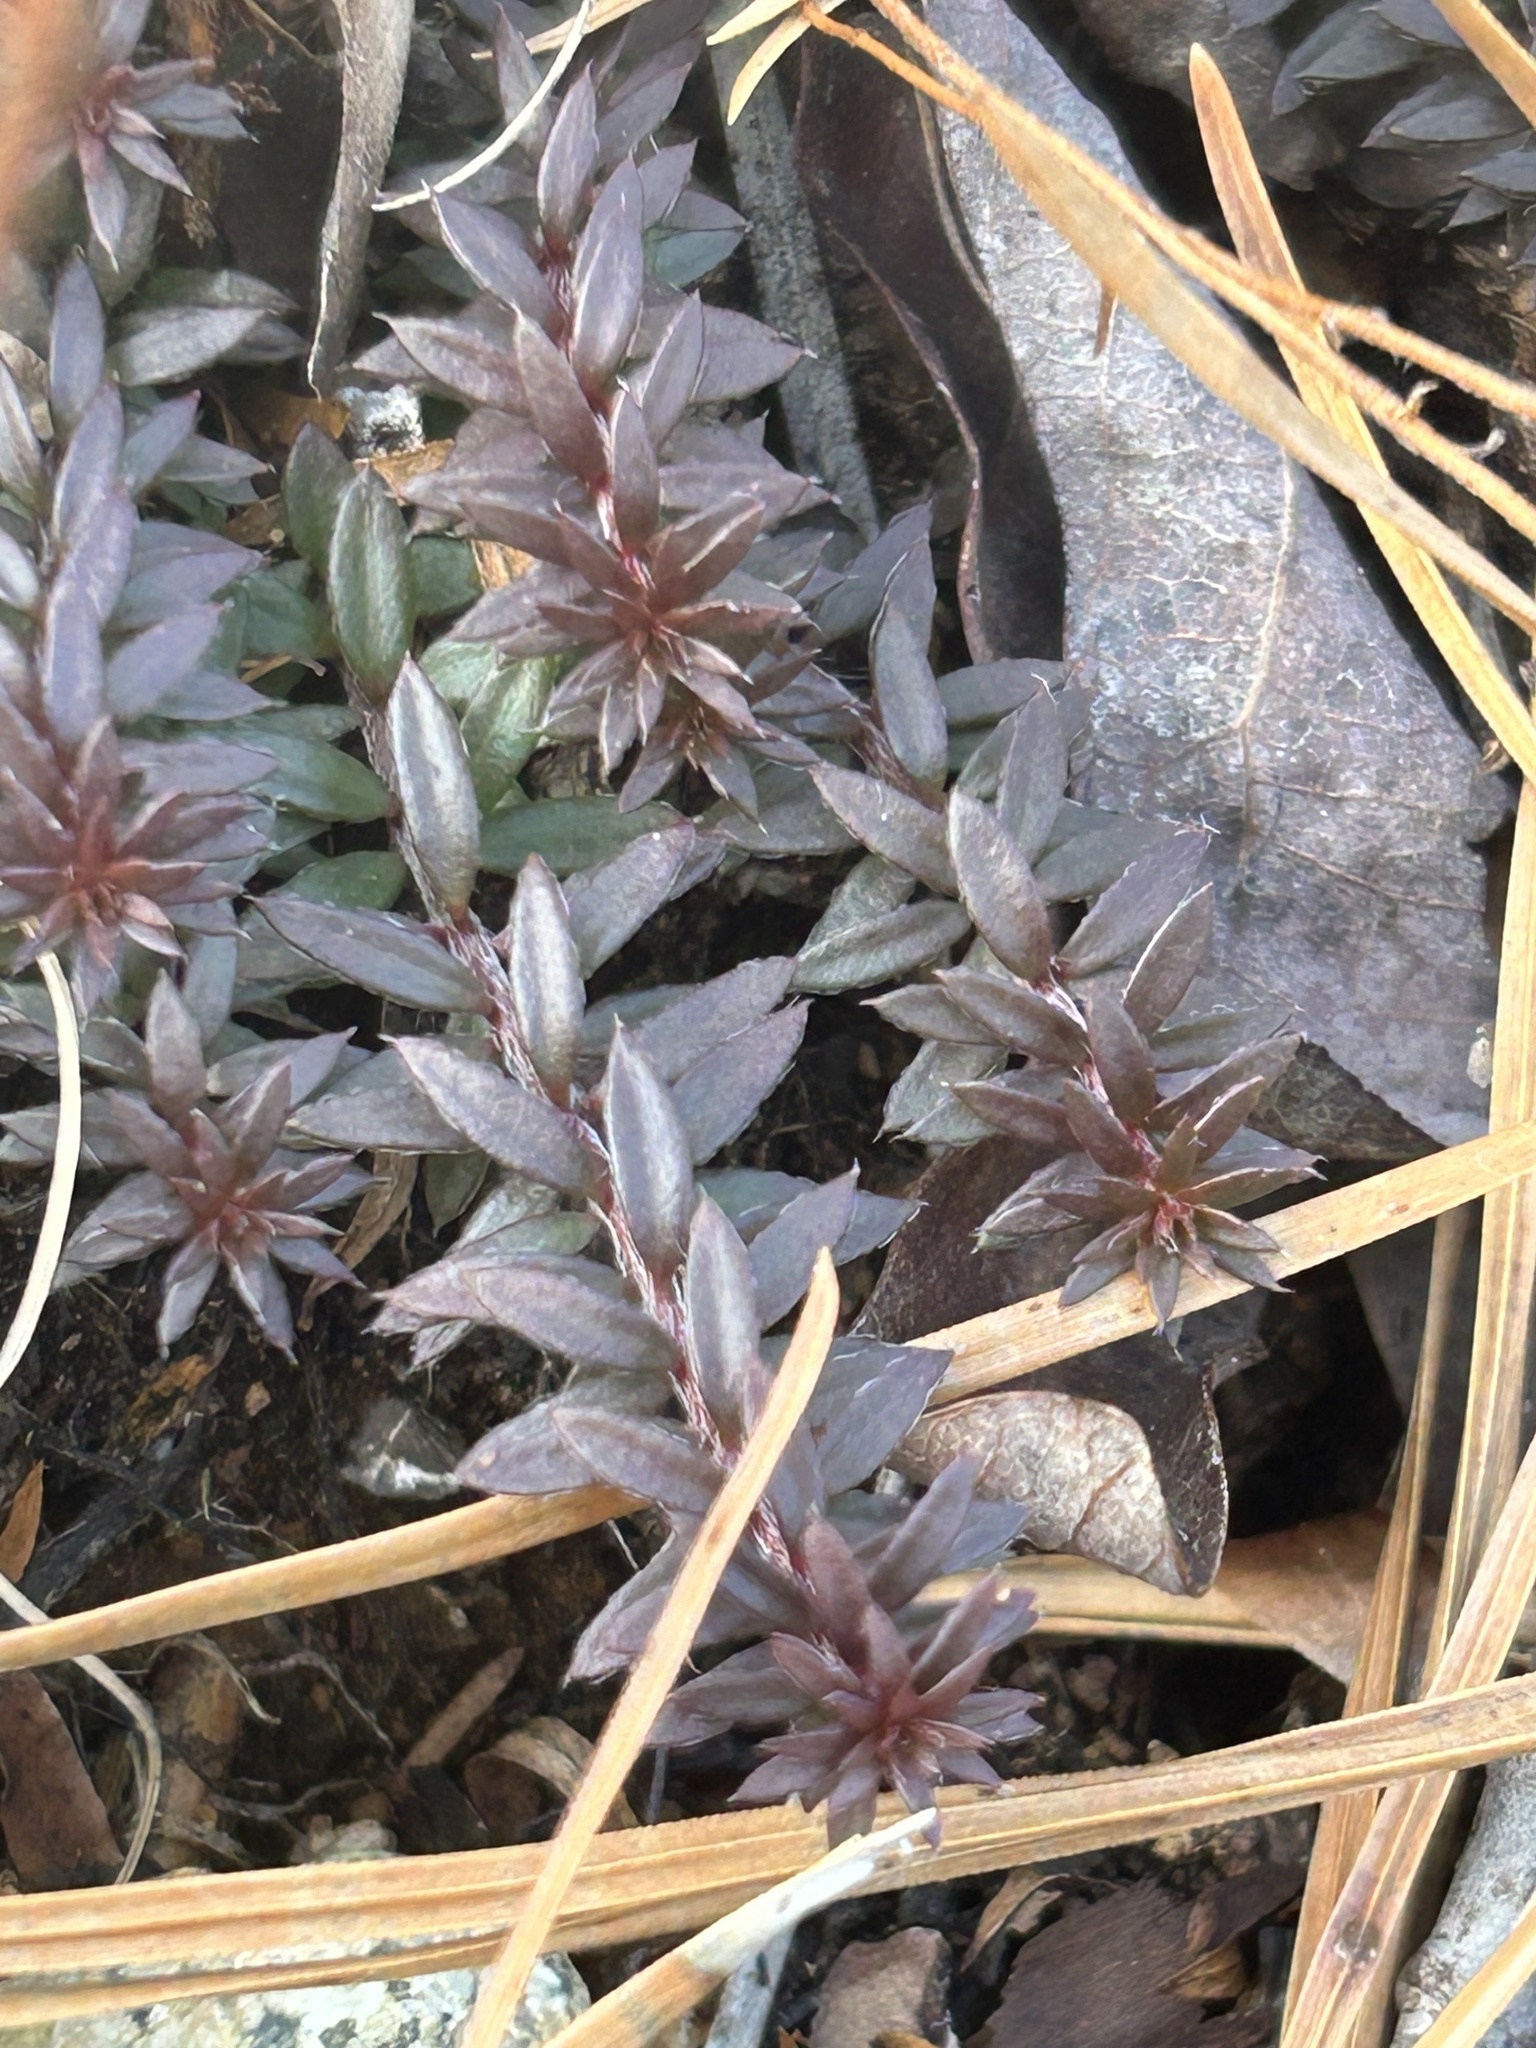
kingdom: Plantae
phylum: Tracheophyta
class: Magnoliopsida
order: Malvales
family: Cistaceae
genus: Lechea
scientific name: Lechea intermedia
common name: Intermediate pinweed
